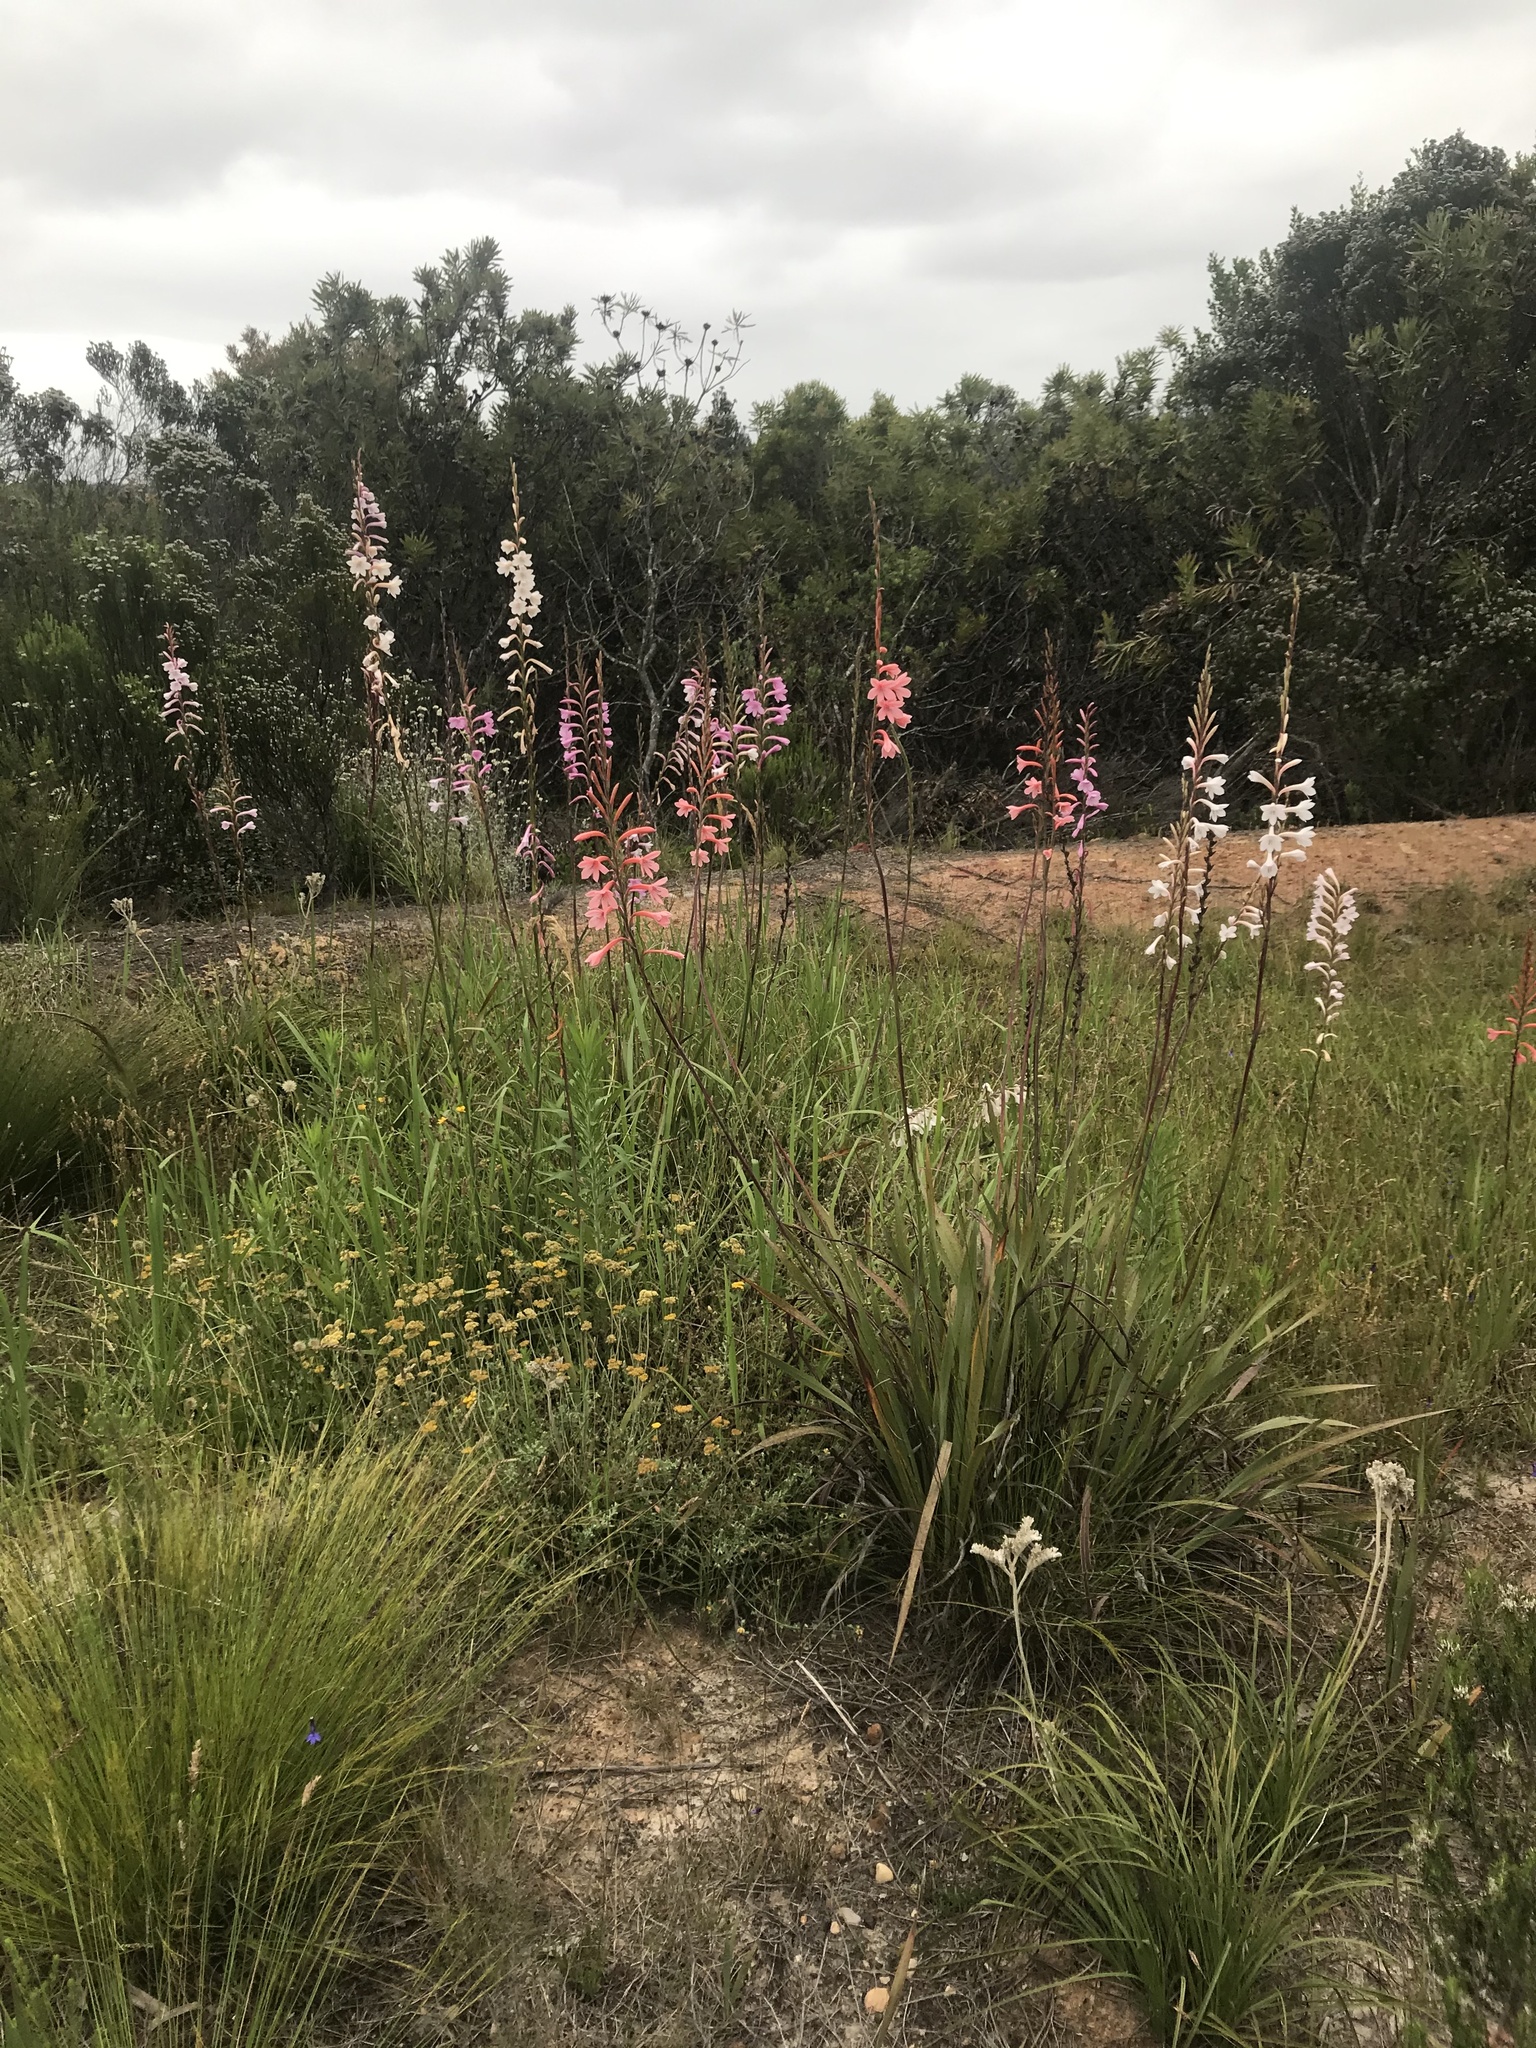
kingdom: Plantae
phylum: Tracheophyta
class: Liliopsida
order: Asparagales
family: Iridaceae
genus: Watsonia
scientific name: Watsonia knysnana
